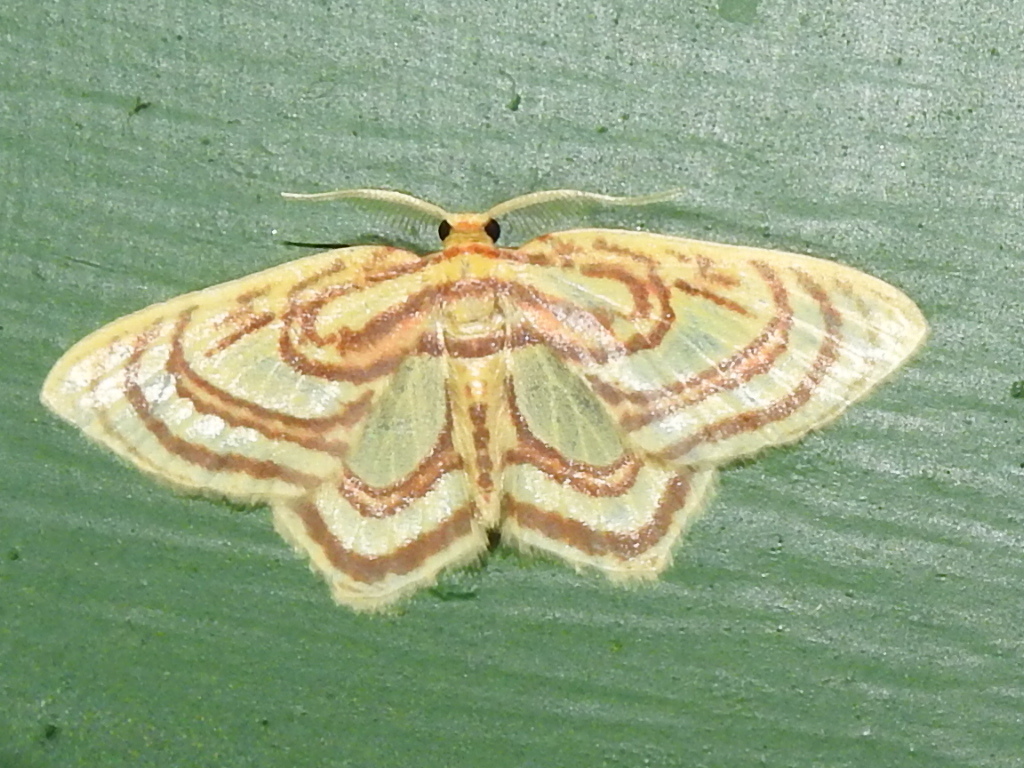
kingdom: Animalia
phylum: Arthropoda
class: Insecta
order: Lepidoptera
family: Geometridae
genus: Eois
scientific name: Eois isographata
